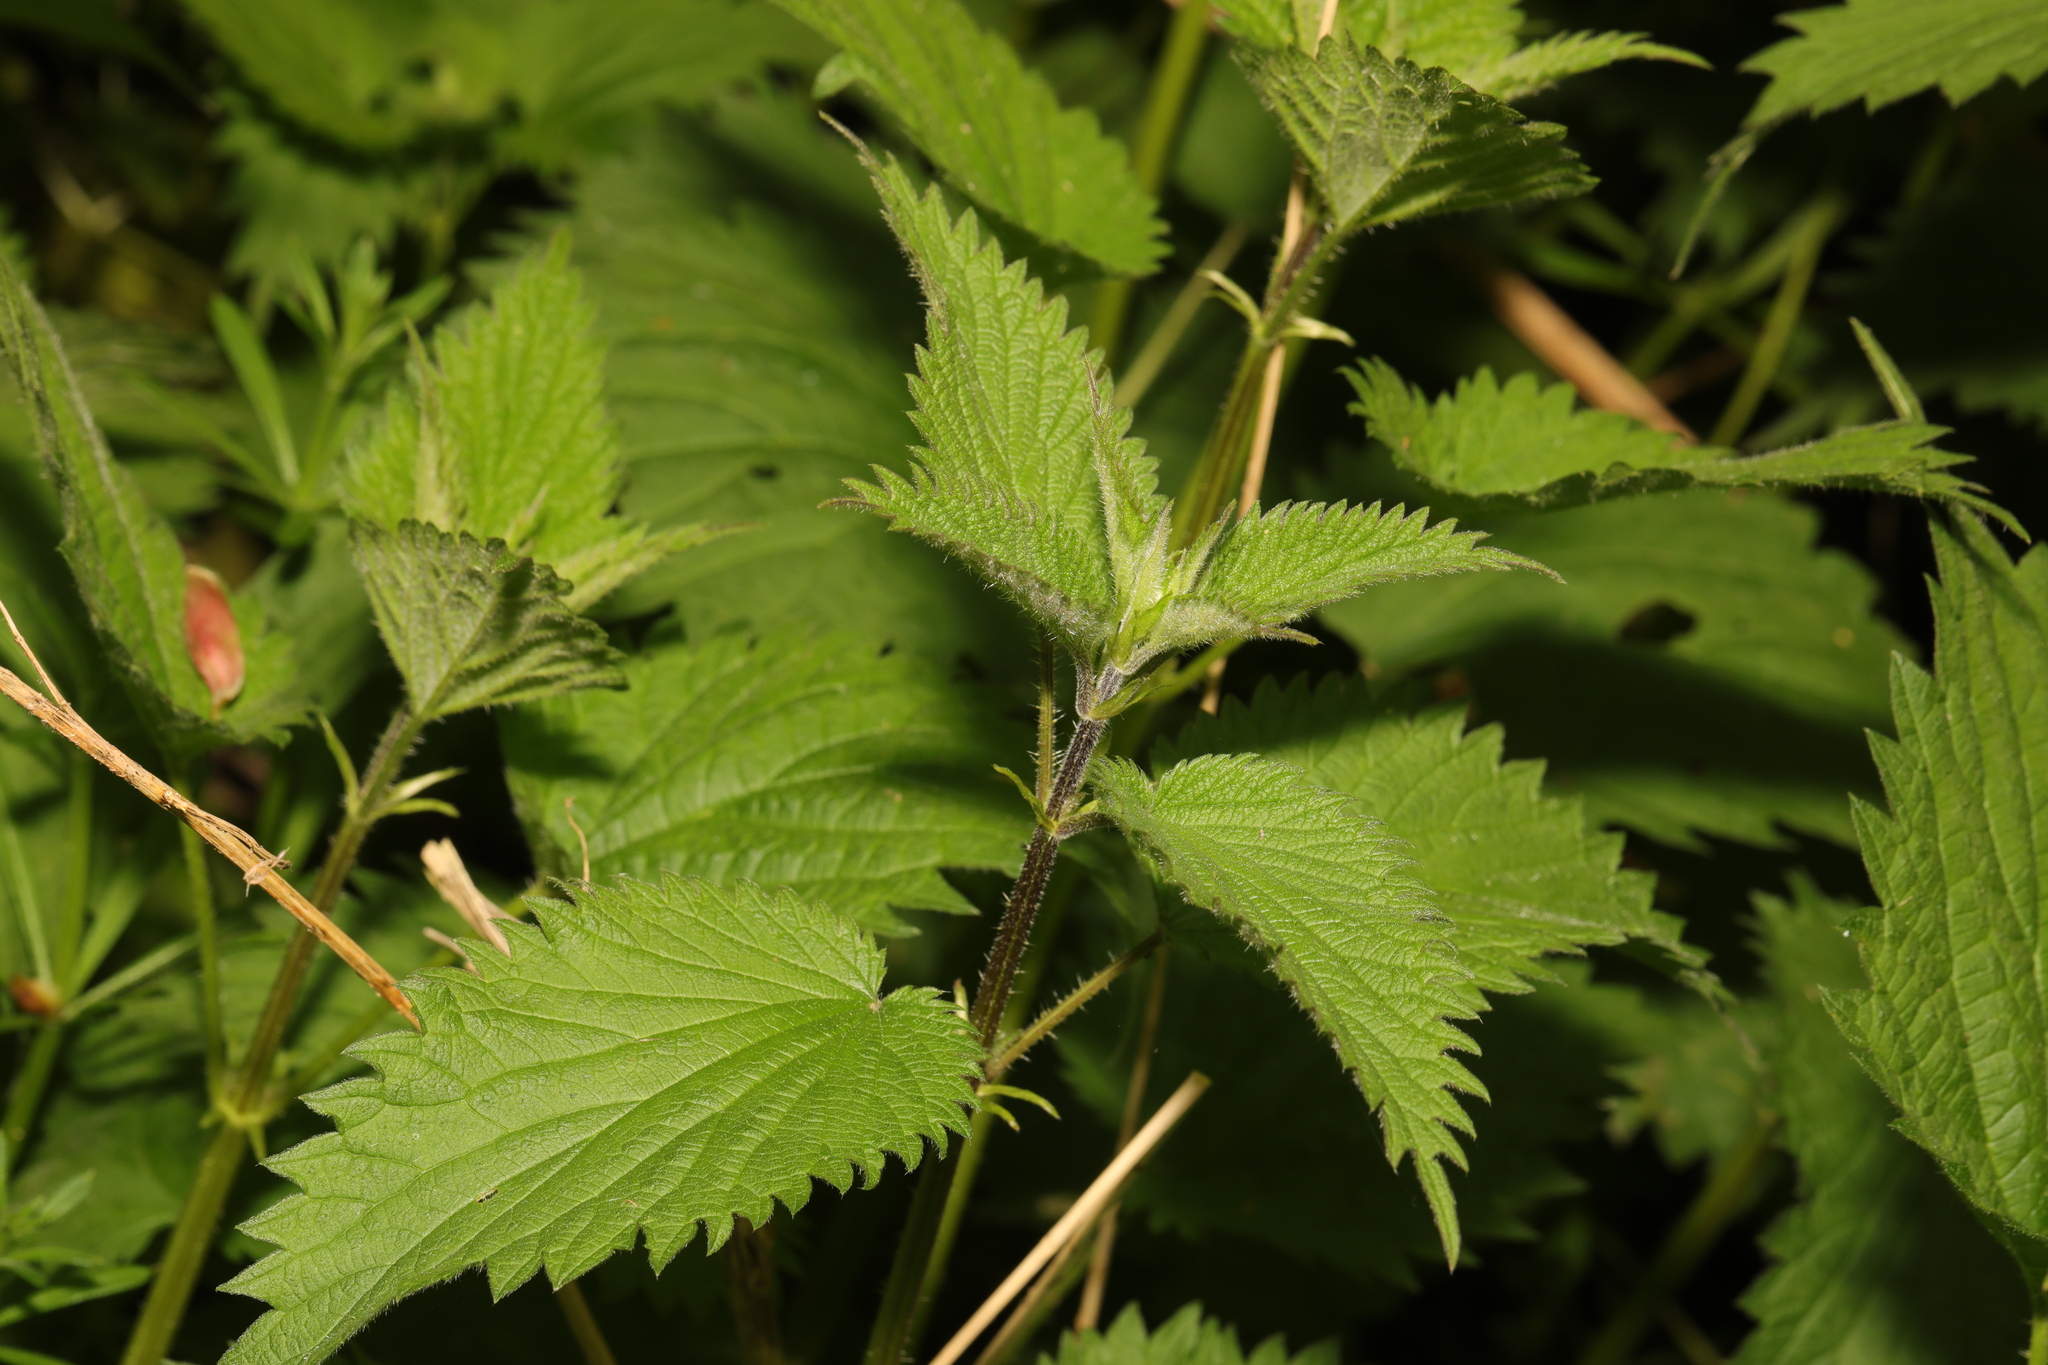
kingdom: Plantae
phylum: Tracheophyta
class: Magnoliopsida
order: Rosales
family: Urticaceae
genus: Urtica
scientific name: Urtica dioica
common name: Common nettle
